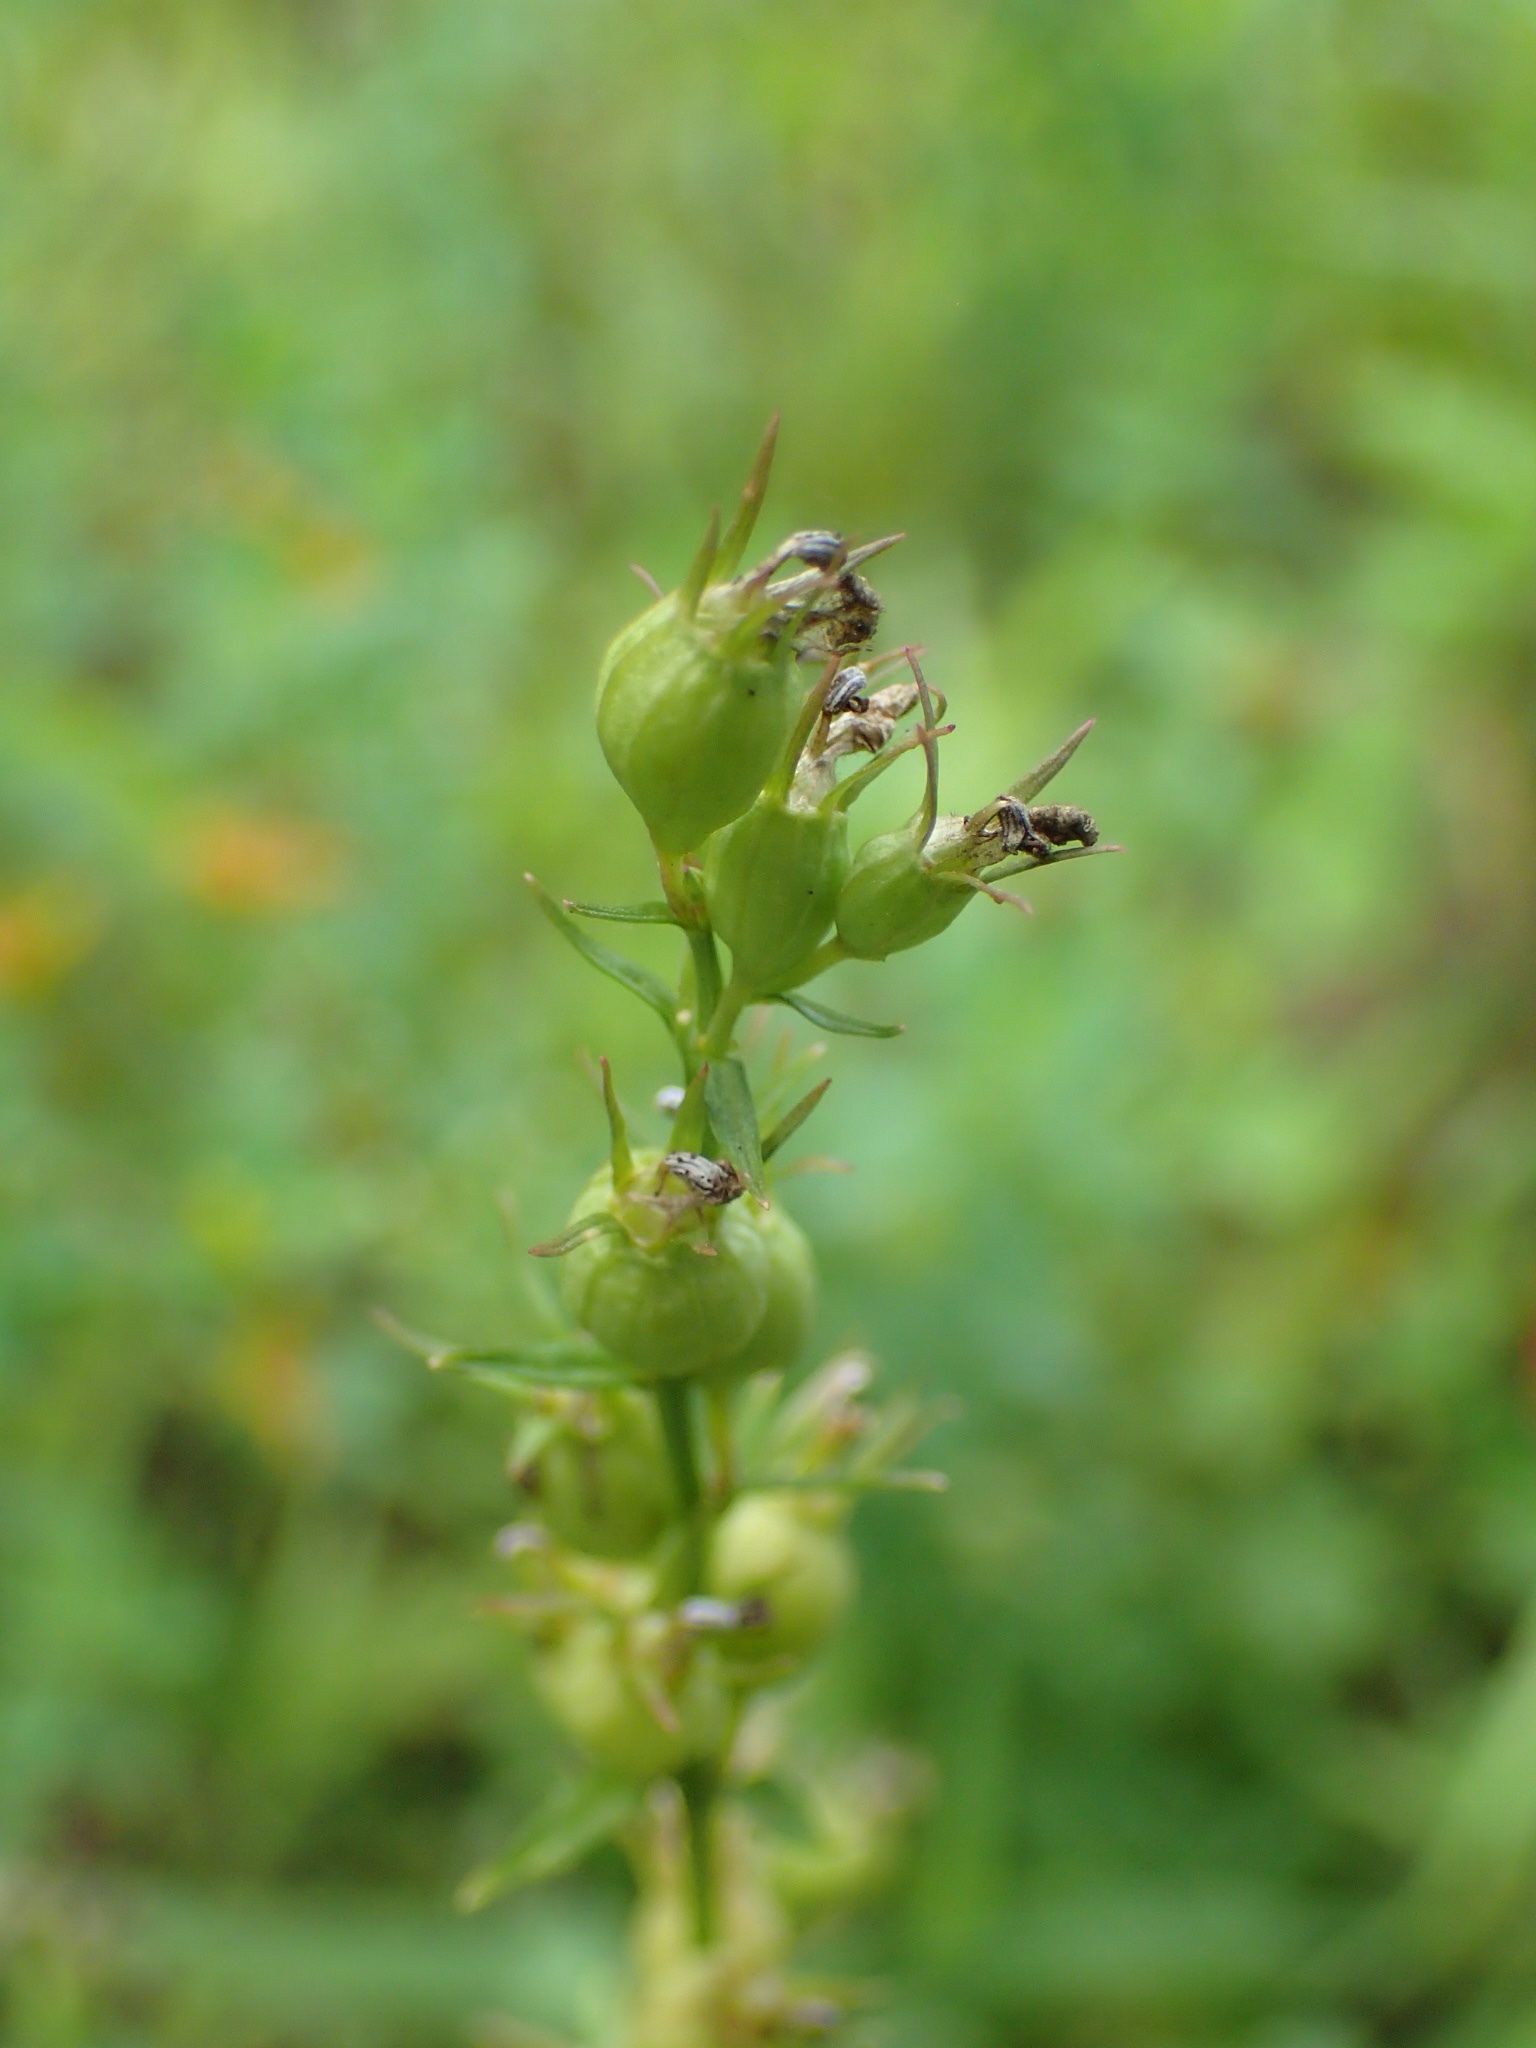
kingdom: Plantae
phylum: Tracheophyta
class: Magnoliopsida
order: Asterales
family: Campanulaceae
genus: Lobelia
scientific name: Lobelia inflata
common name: Indian tobacco
